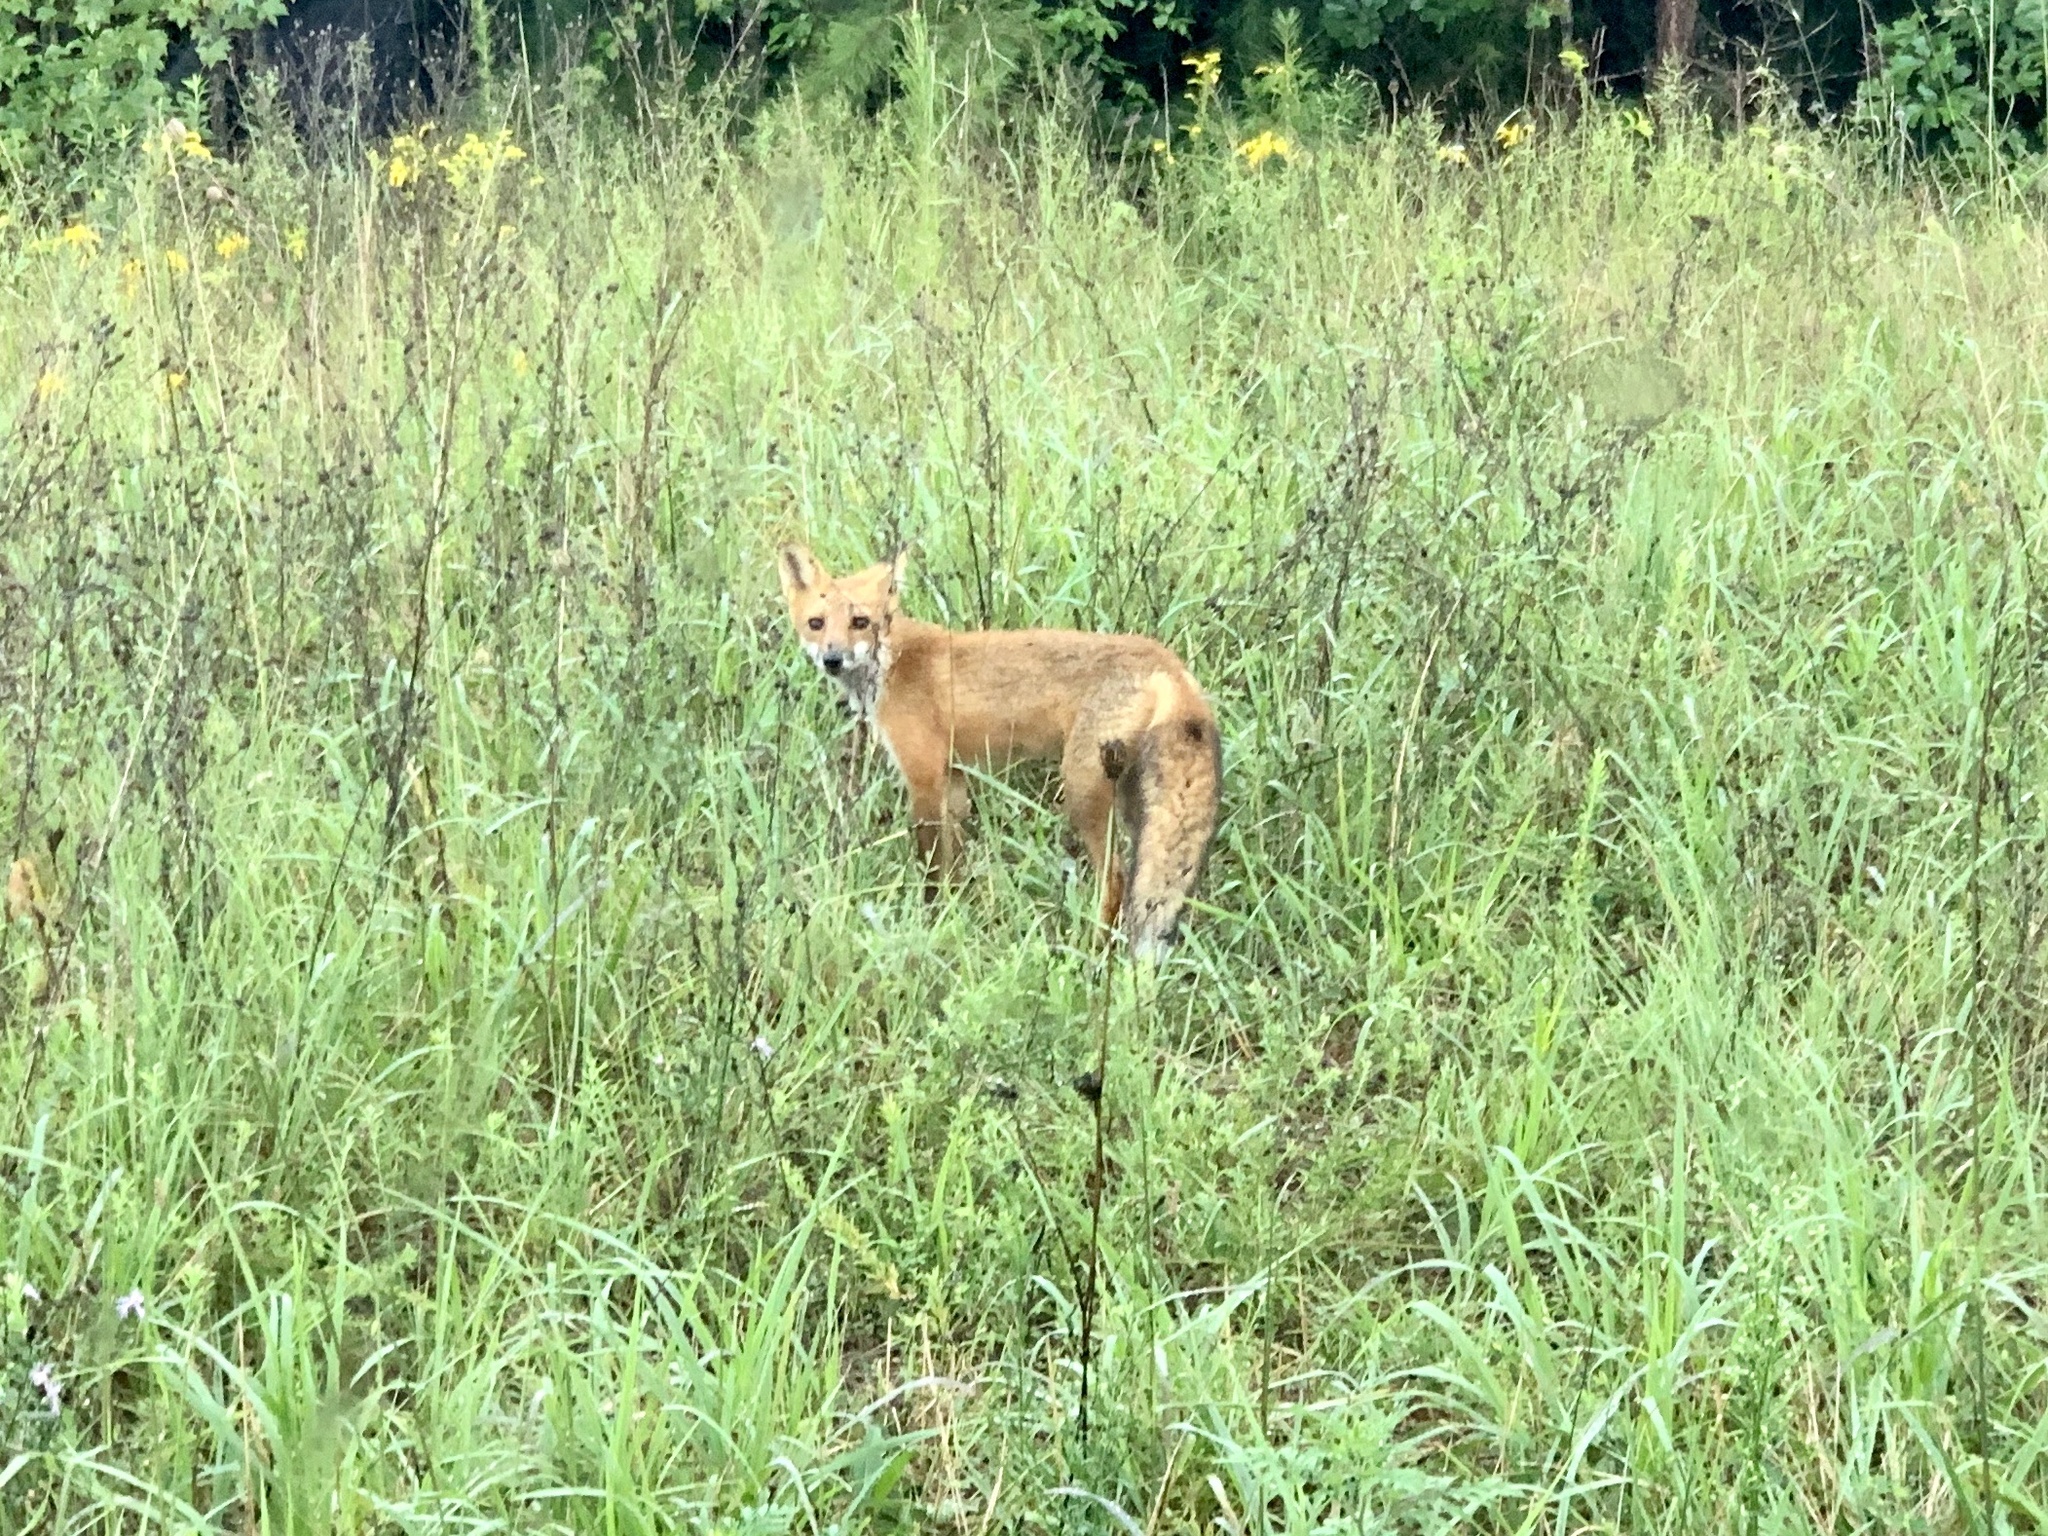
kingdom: Animalia
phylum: Chordata
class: Mammalia
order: Carnivora
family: Canidae
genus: Vulpes
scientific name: Vulpes vulpes
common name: Red fox
